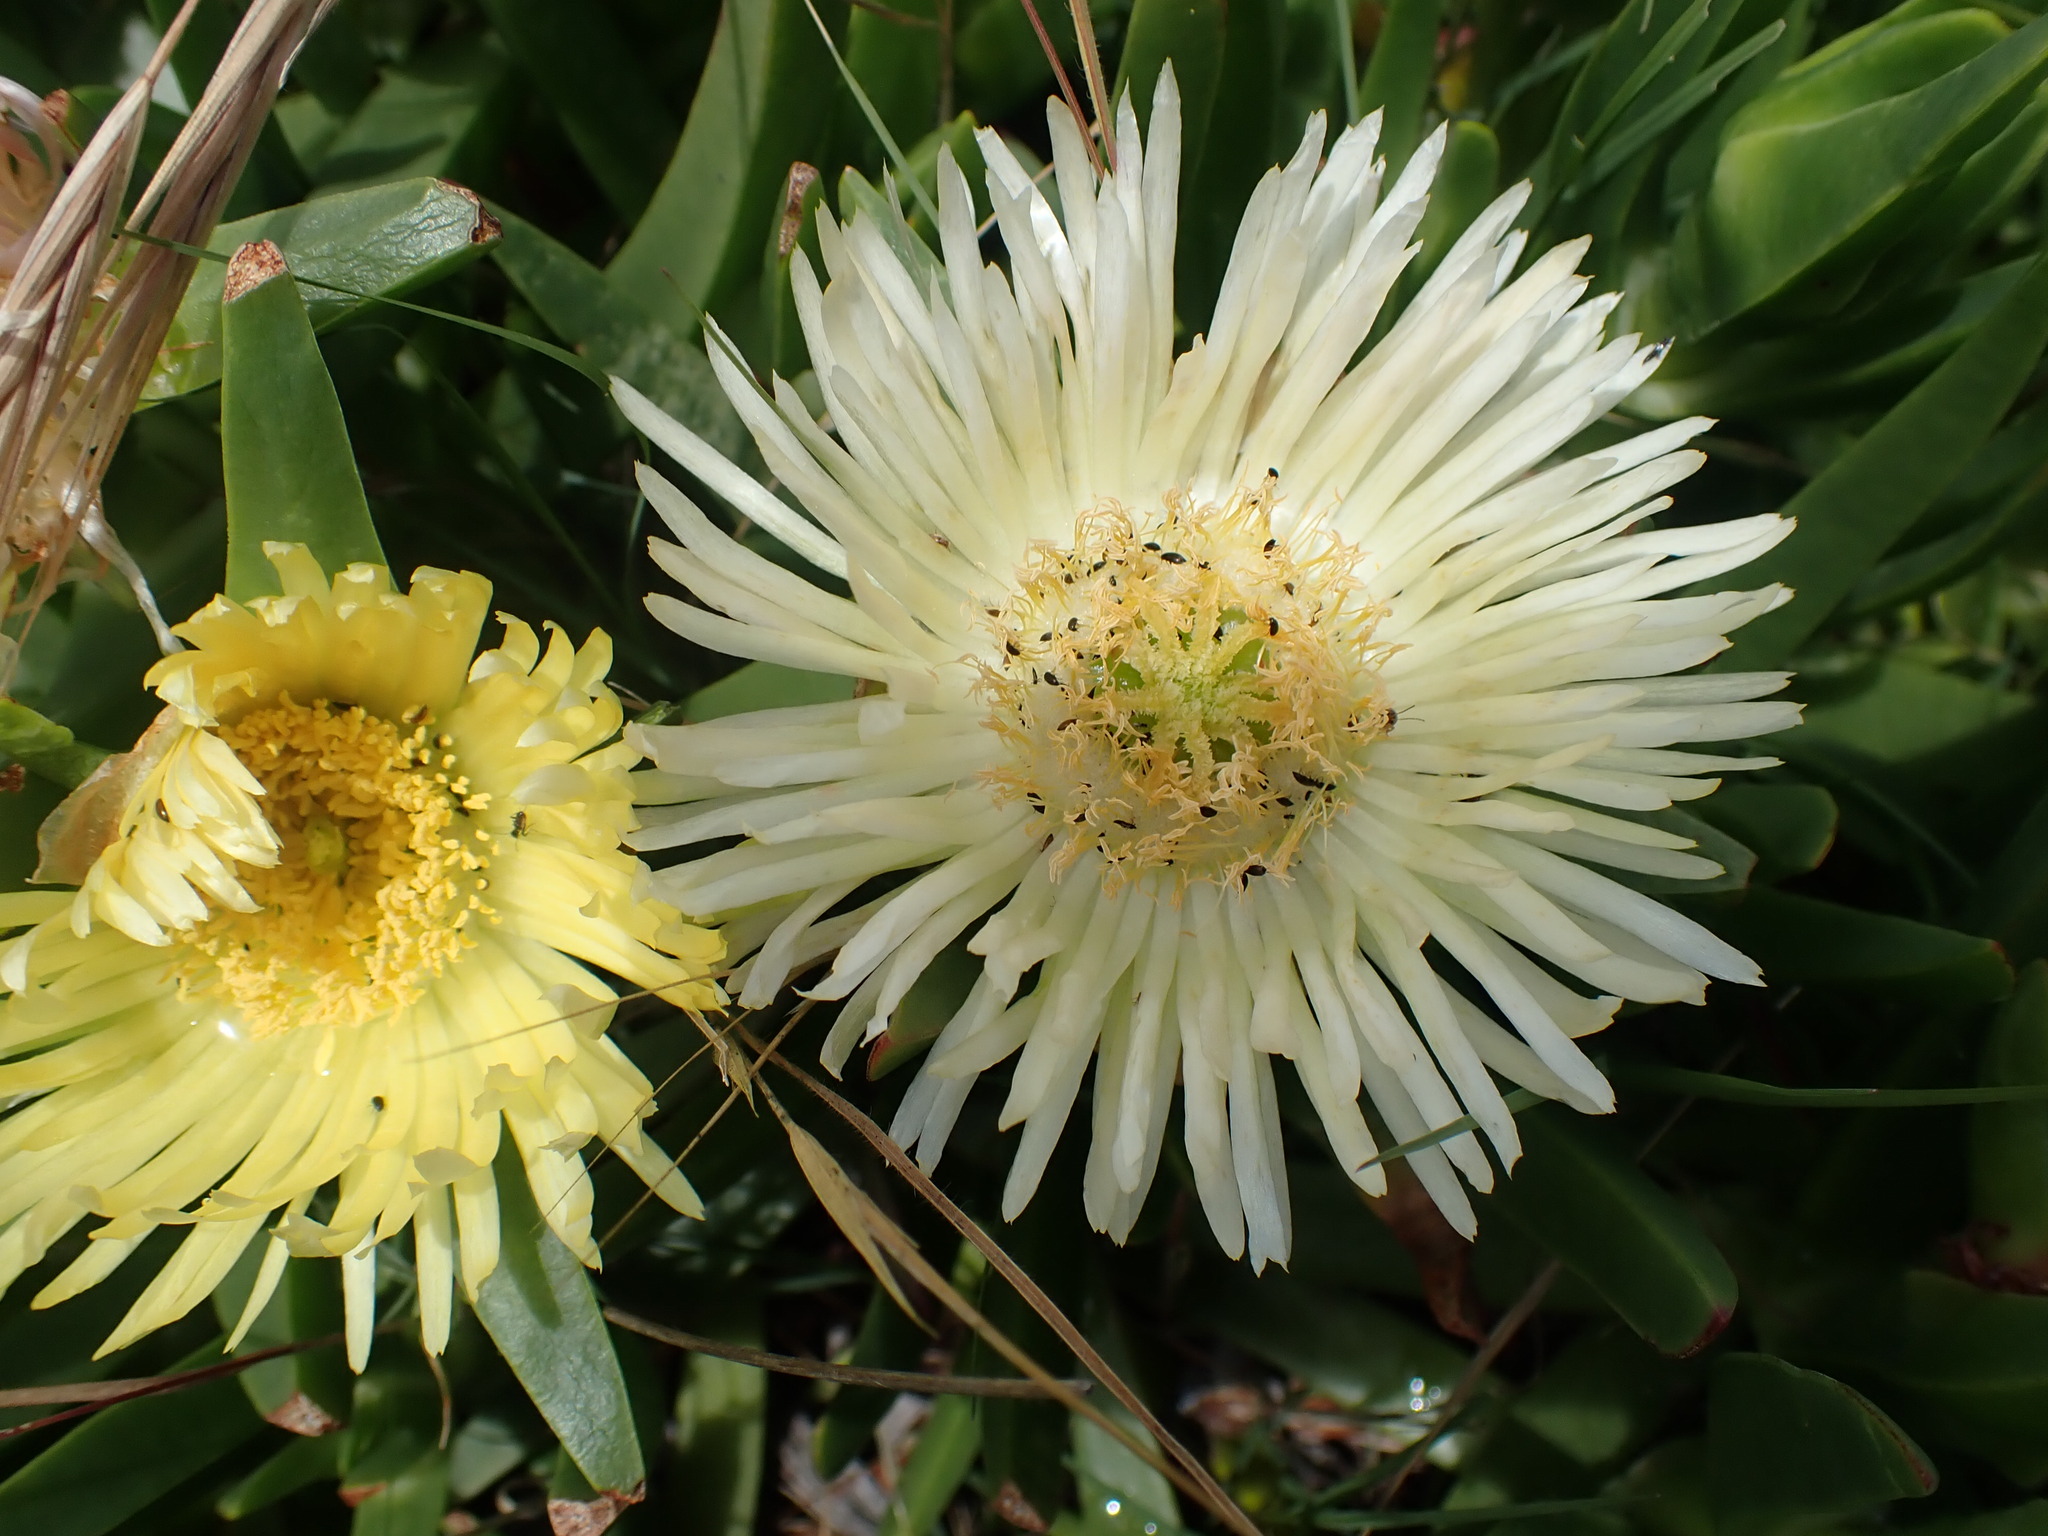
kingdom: Plantae
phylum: Tracheophyta
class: Magnoliopsida
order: Caryophyllales
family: Aizoaceae
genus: Carpobrotus
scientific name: Carpobrotus edulis
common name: Hottentot-fig
